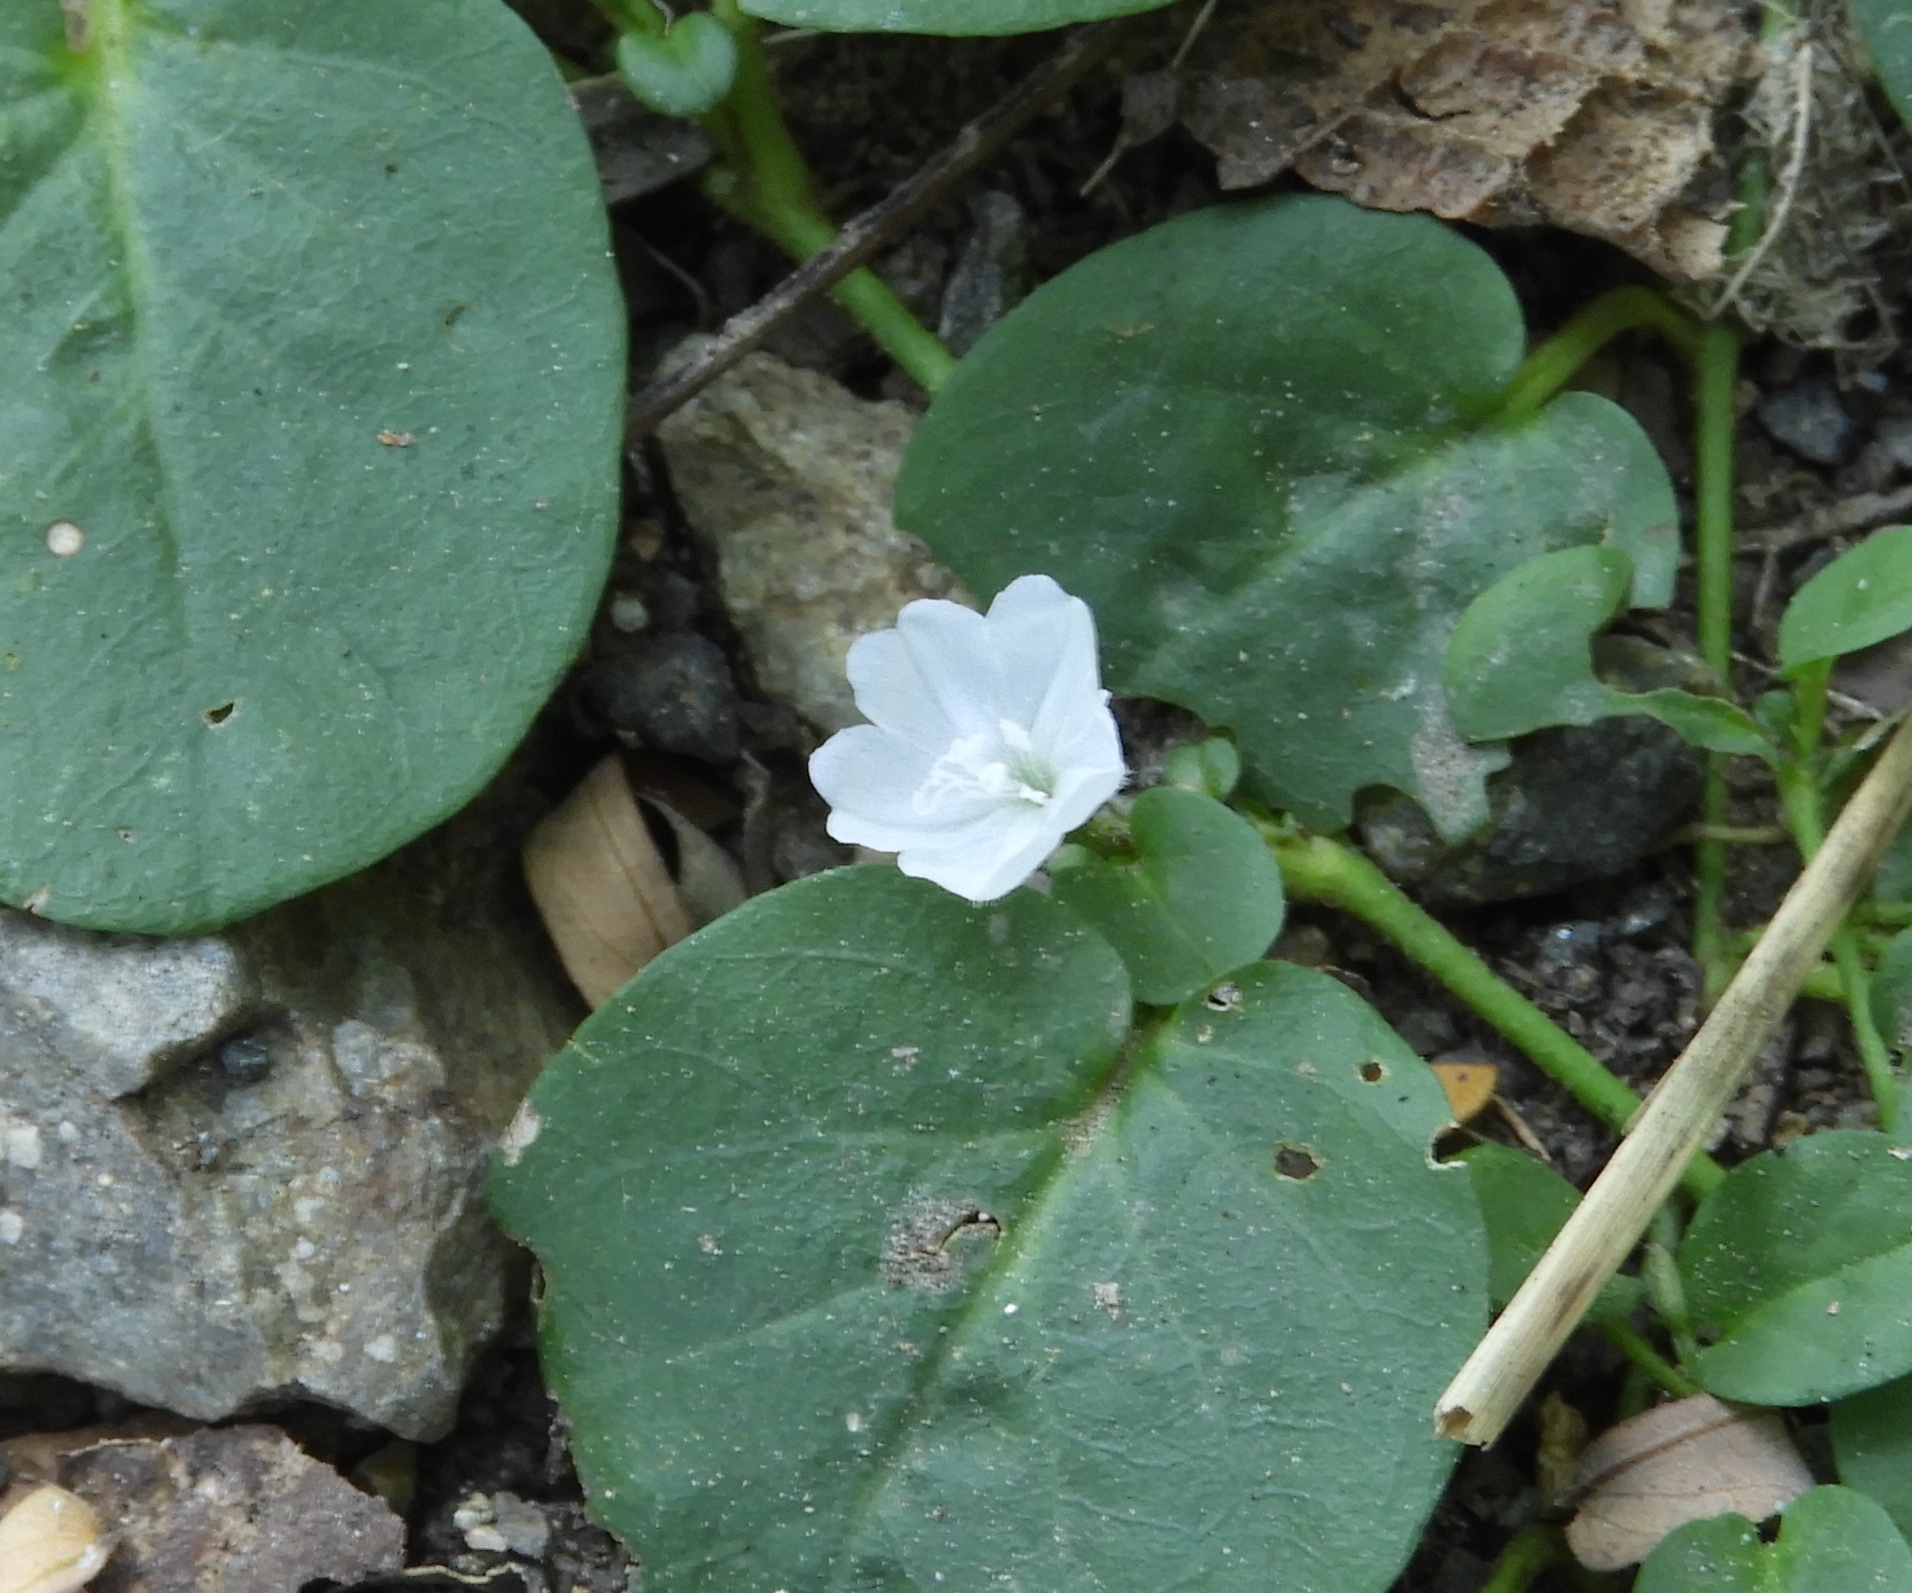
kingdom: Plantae
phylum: Tracheophyta
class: Magnoliopsida
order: Solanales
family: Convolvulaceae
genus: Evolvulus
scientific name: Evolvulus nummularius
